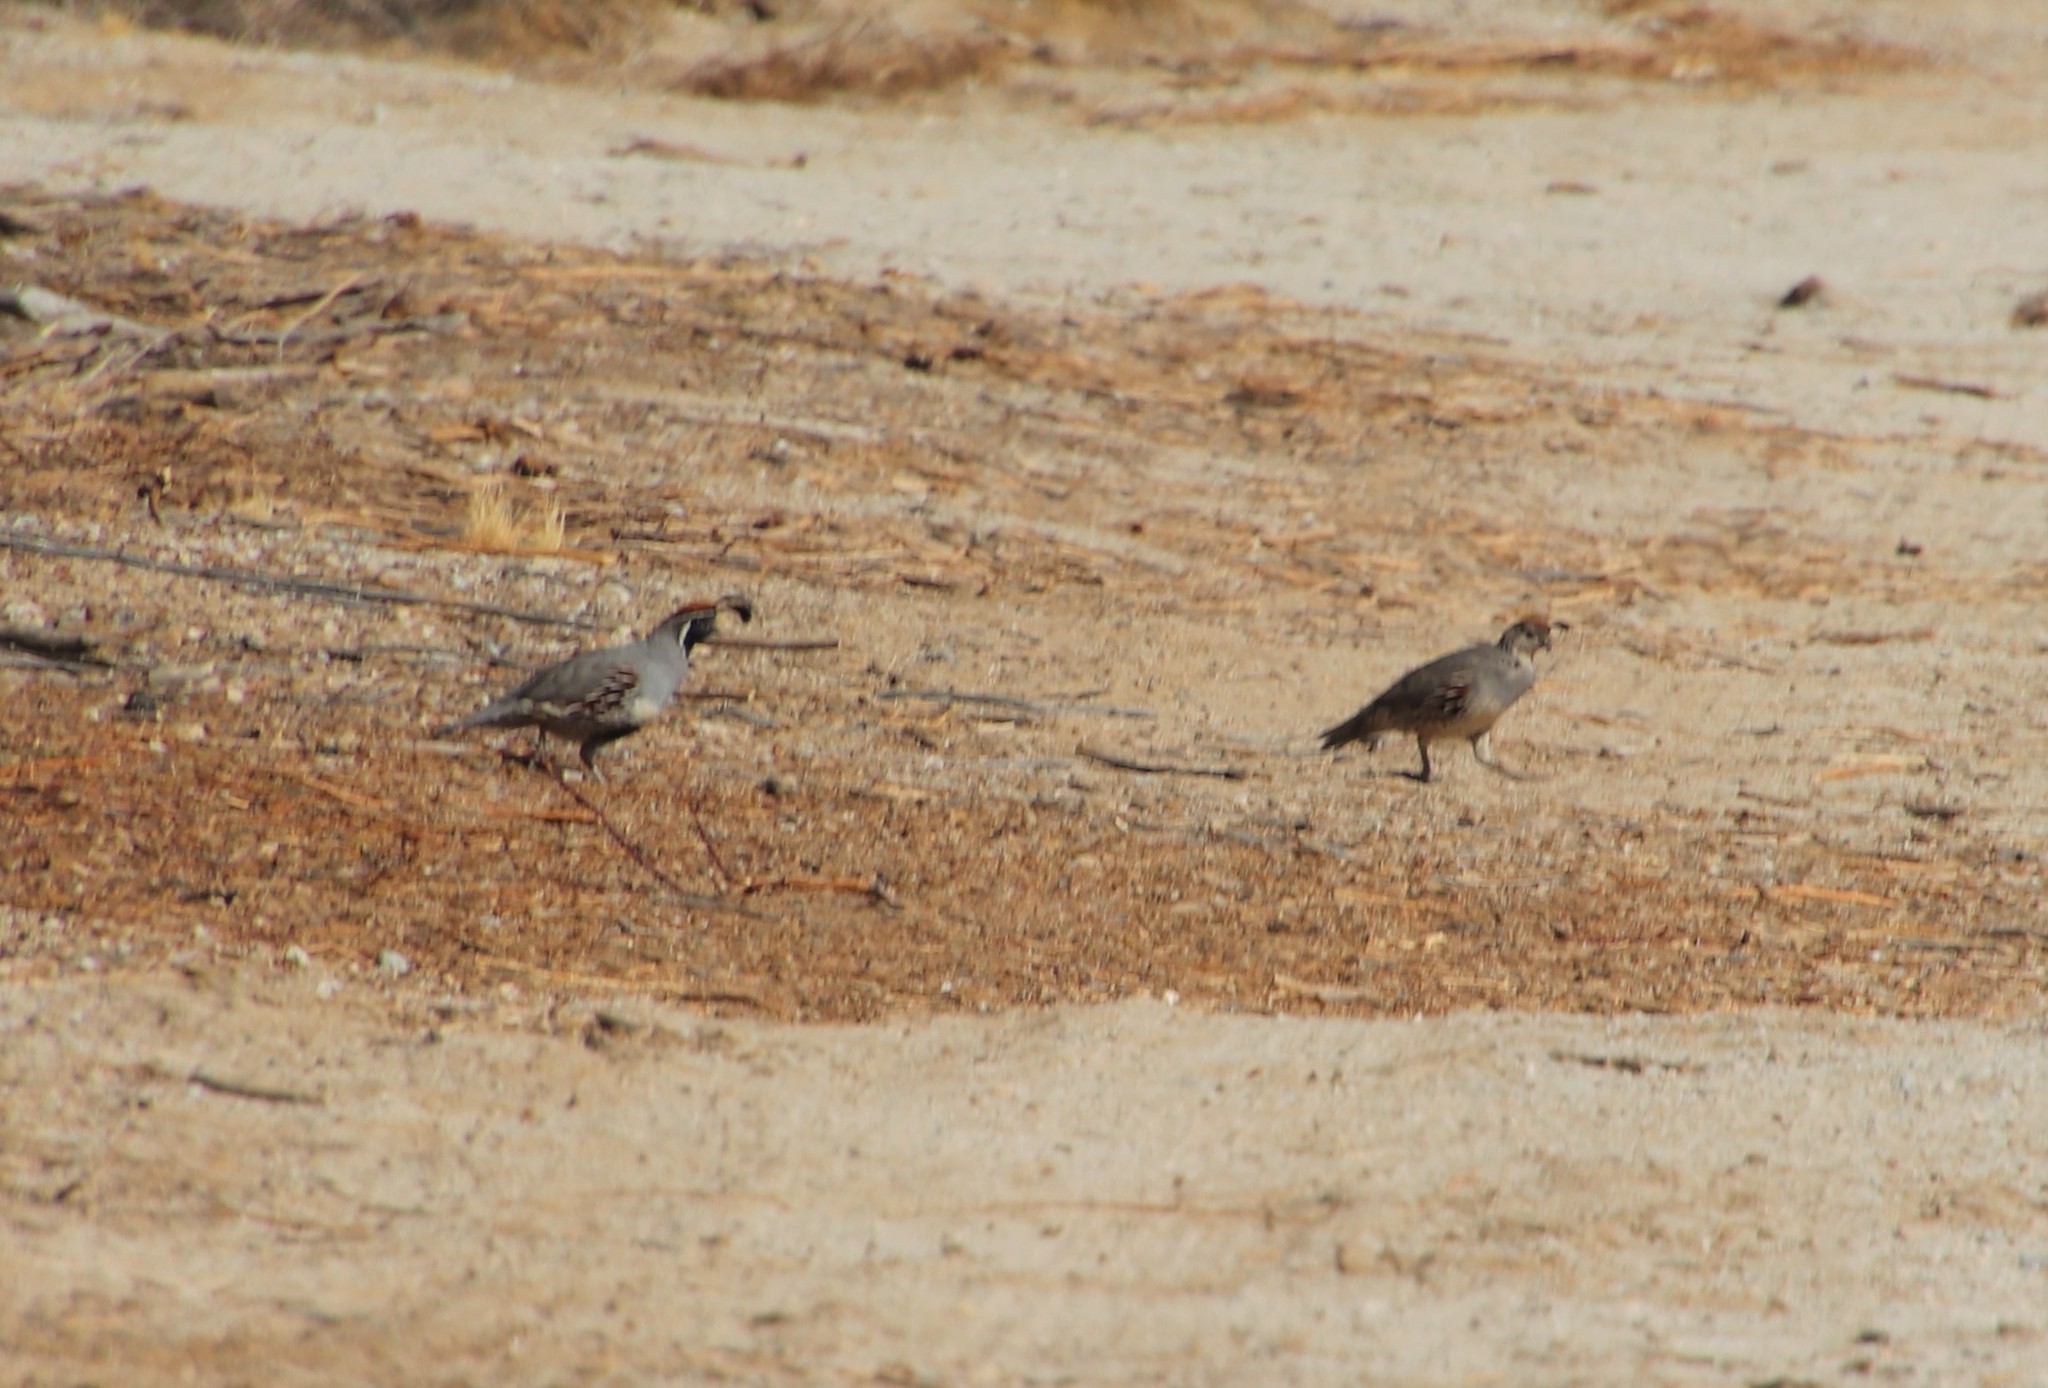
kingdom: Animalia
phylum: Chordata
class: Aves
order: Galliformes
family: Odontophoridae
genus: Callipepla
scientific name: Callipepla gambelii
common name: Gambel's quail
